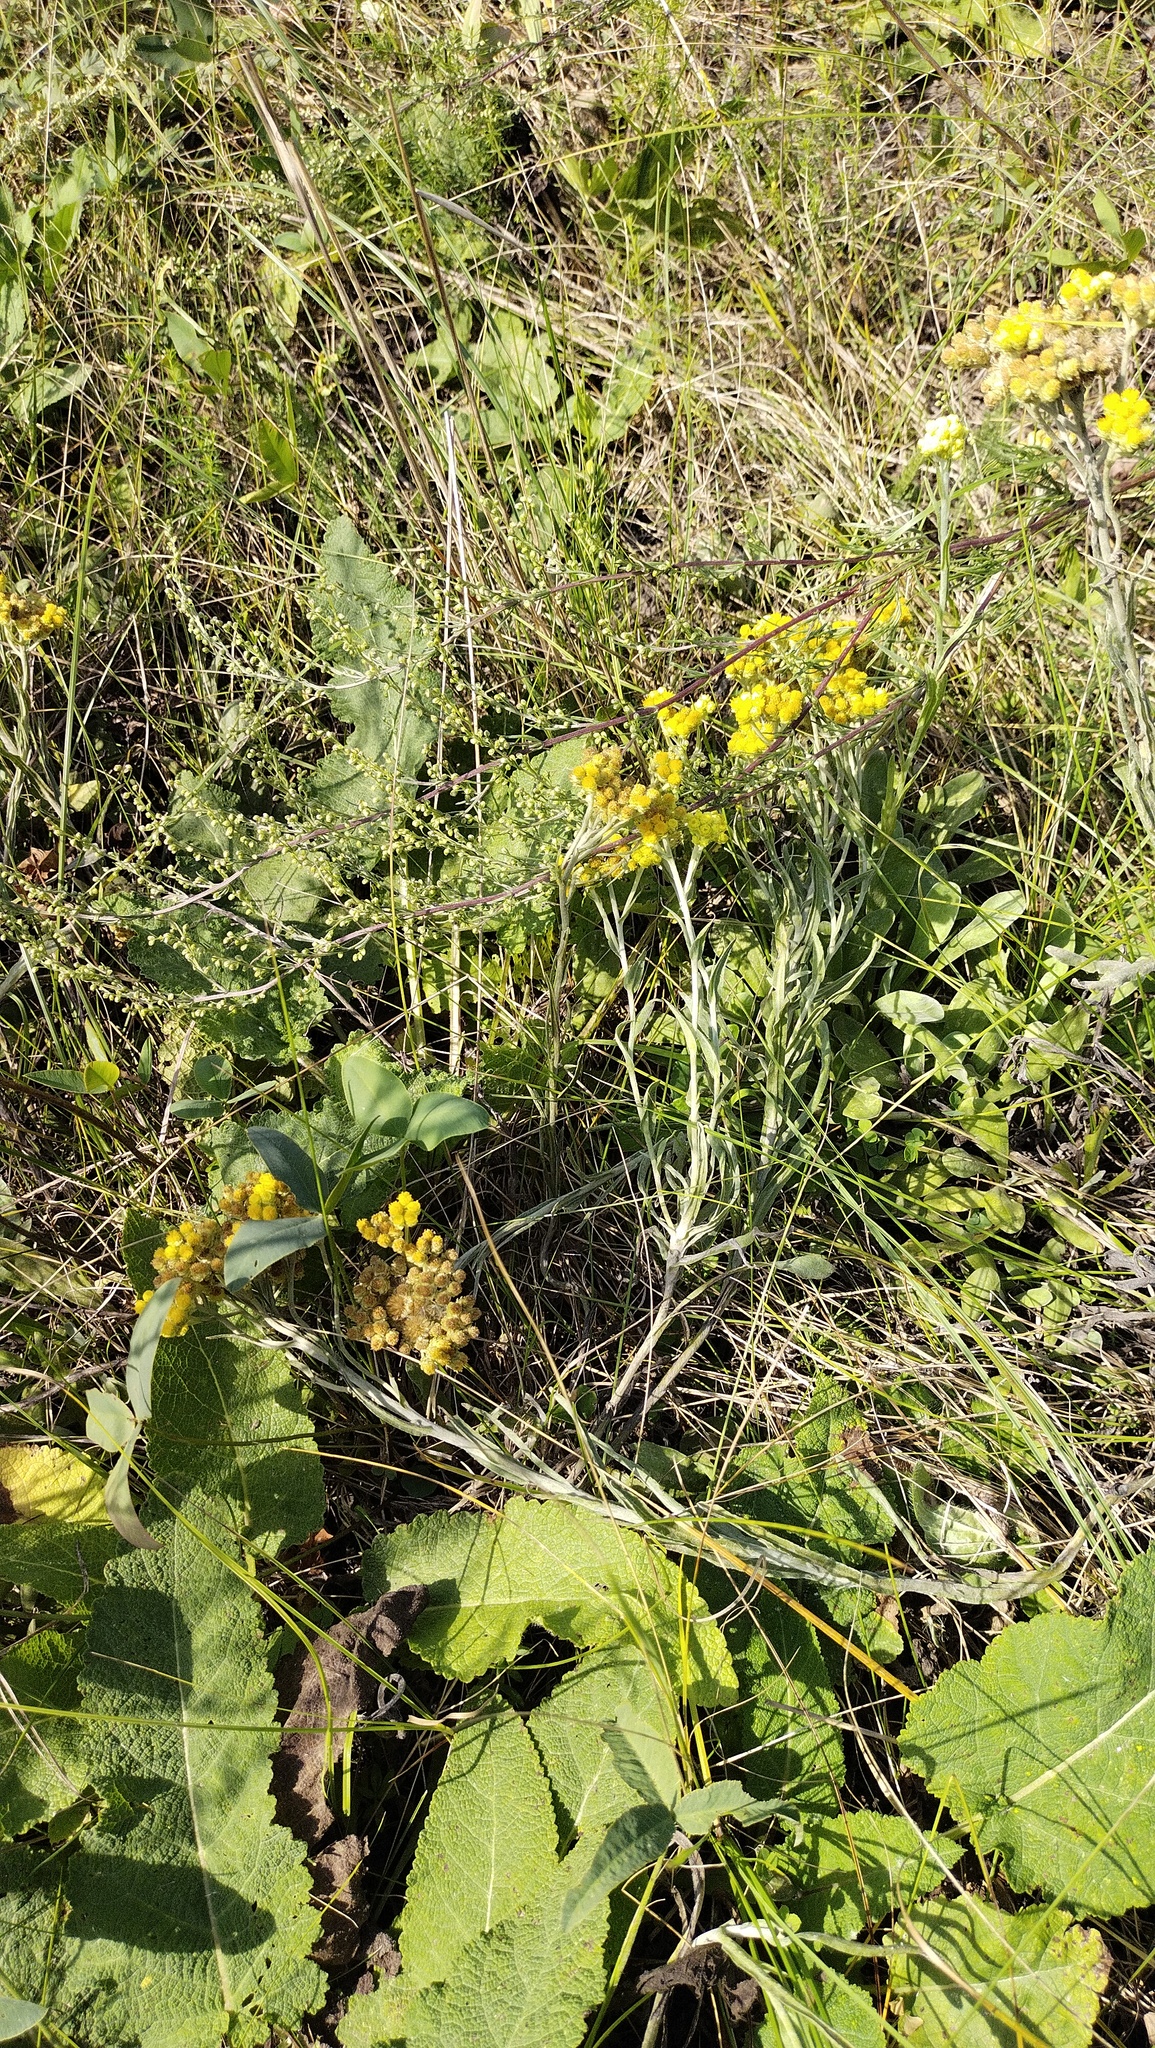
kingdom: Plantae
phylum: Tracheophyta
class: Magnoliopsida
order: Asterales
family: Asteraceae
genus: Helichrysum
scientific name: Helichrysum arenarium
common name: Strawflower
